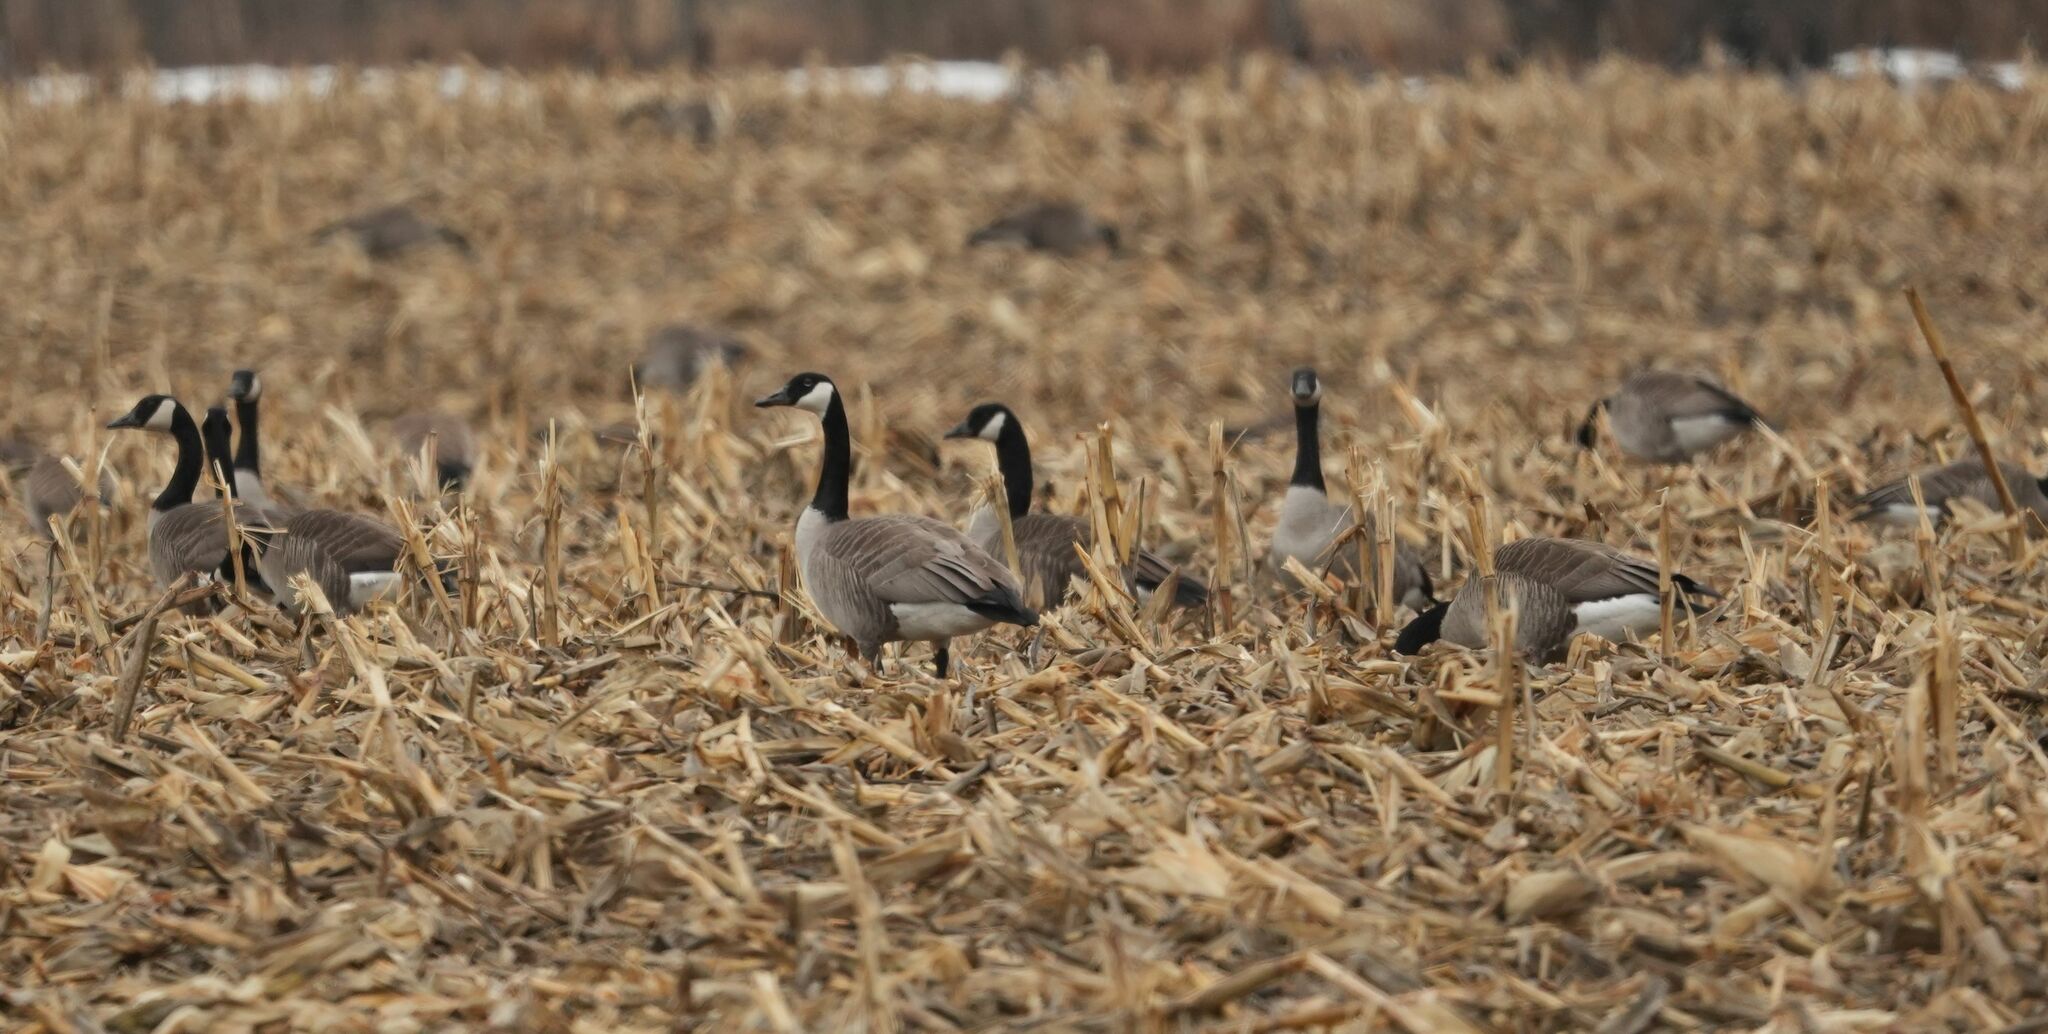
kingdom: Animalia
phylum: Chordata
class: Aves
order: Anseriformes
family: Anatidae
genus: Branta
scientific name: Branta canadensis
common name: Canada goose
